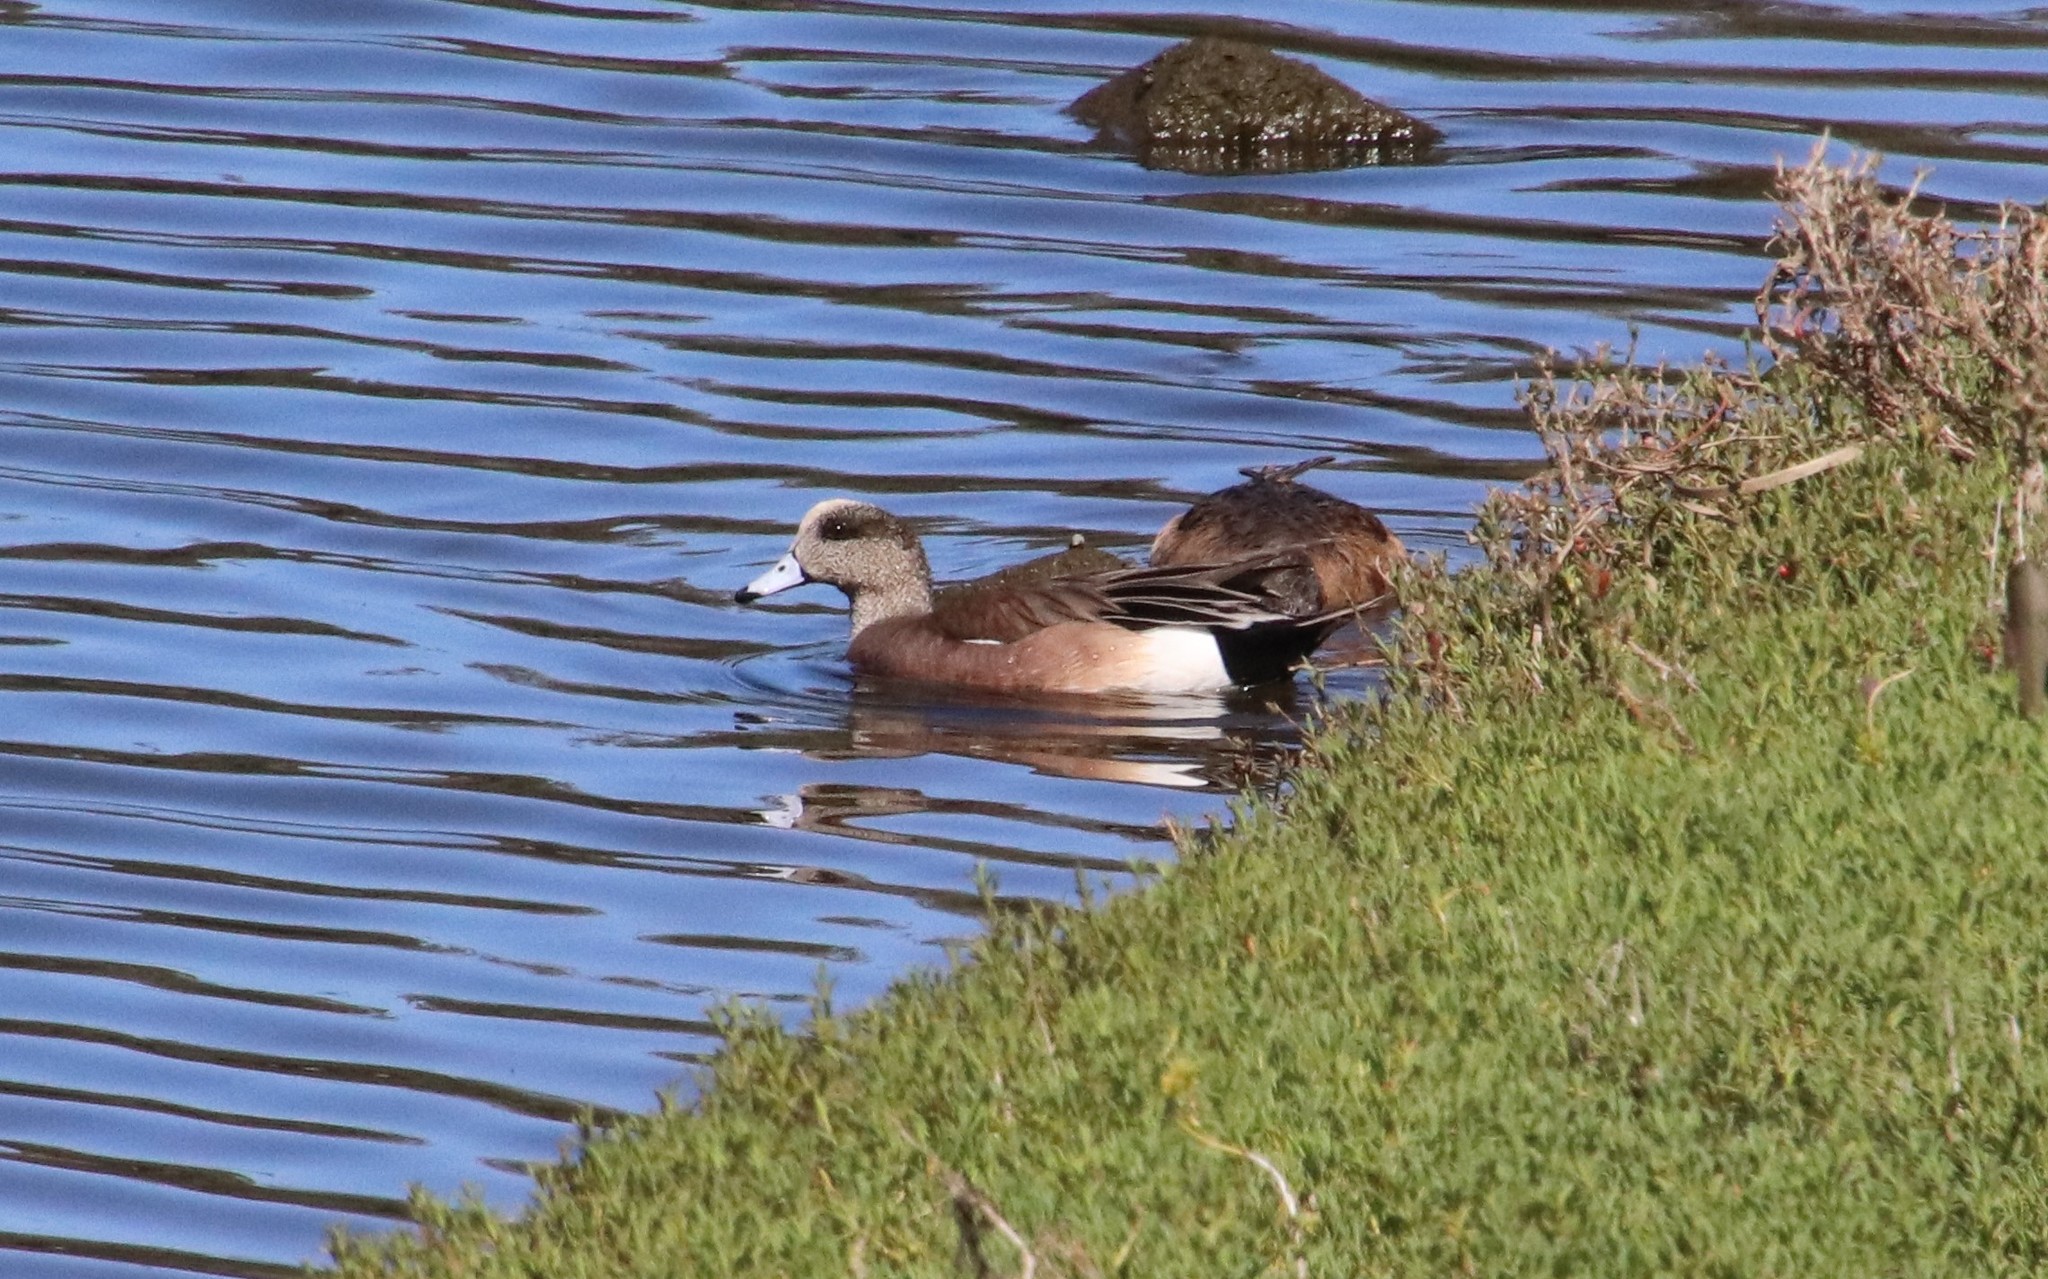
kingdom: Animalia
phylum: Chordata
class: Aves
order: Anseriformes
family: Anatidae
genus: Mareca
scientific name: Mareca americana
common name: American wigeon
